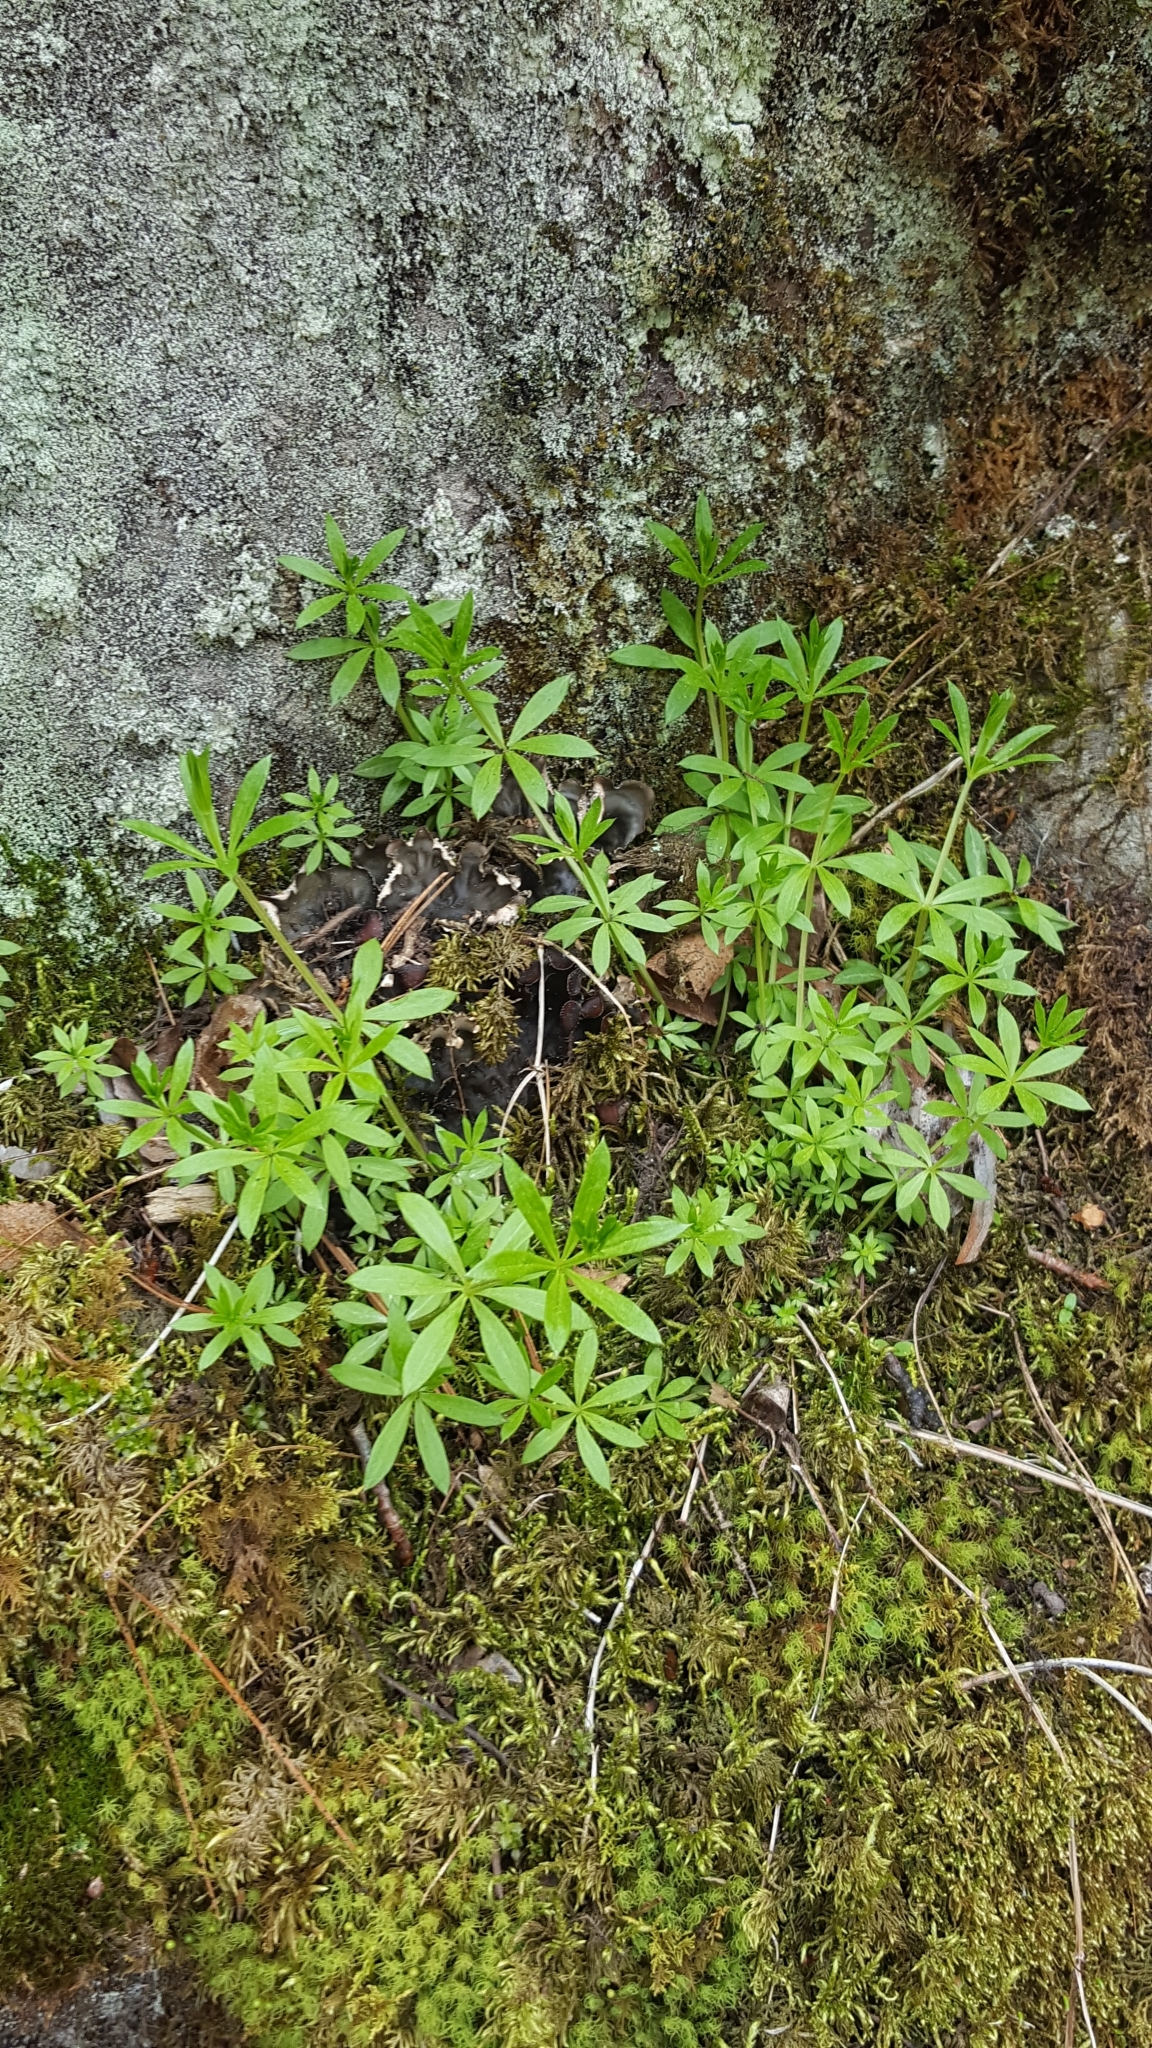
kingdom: Plantae
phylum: Tracheophyta
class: Magnoliopsida
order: Gentianales
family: Rubiaceae
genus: Galium
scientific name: Galium triflorum
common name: Fragrant bedstraw
